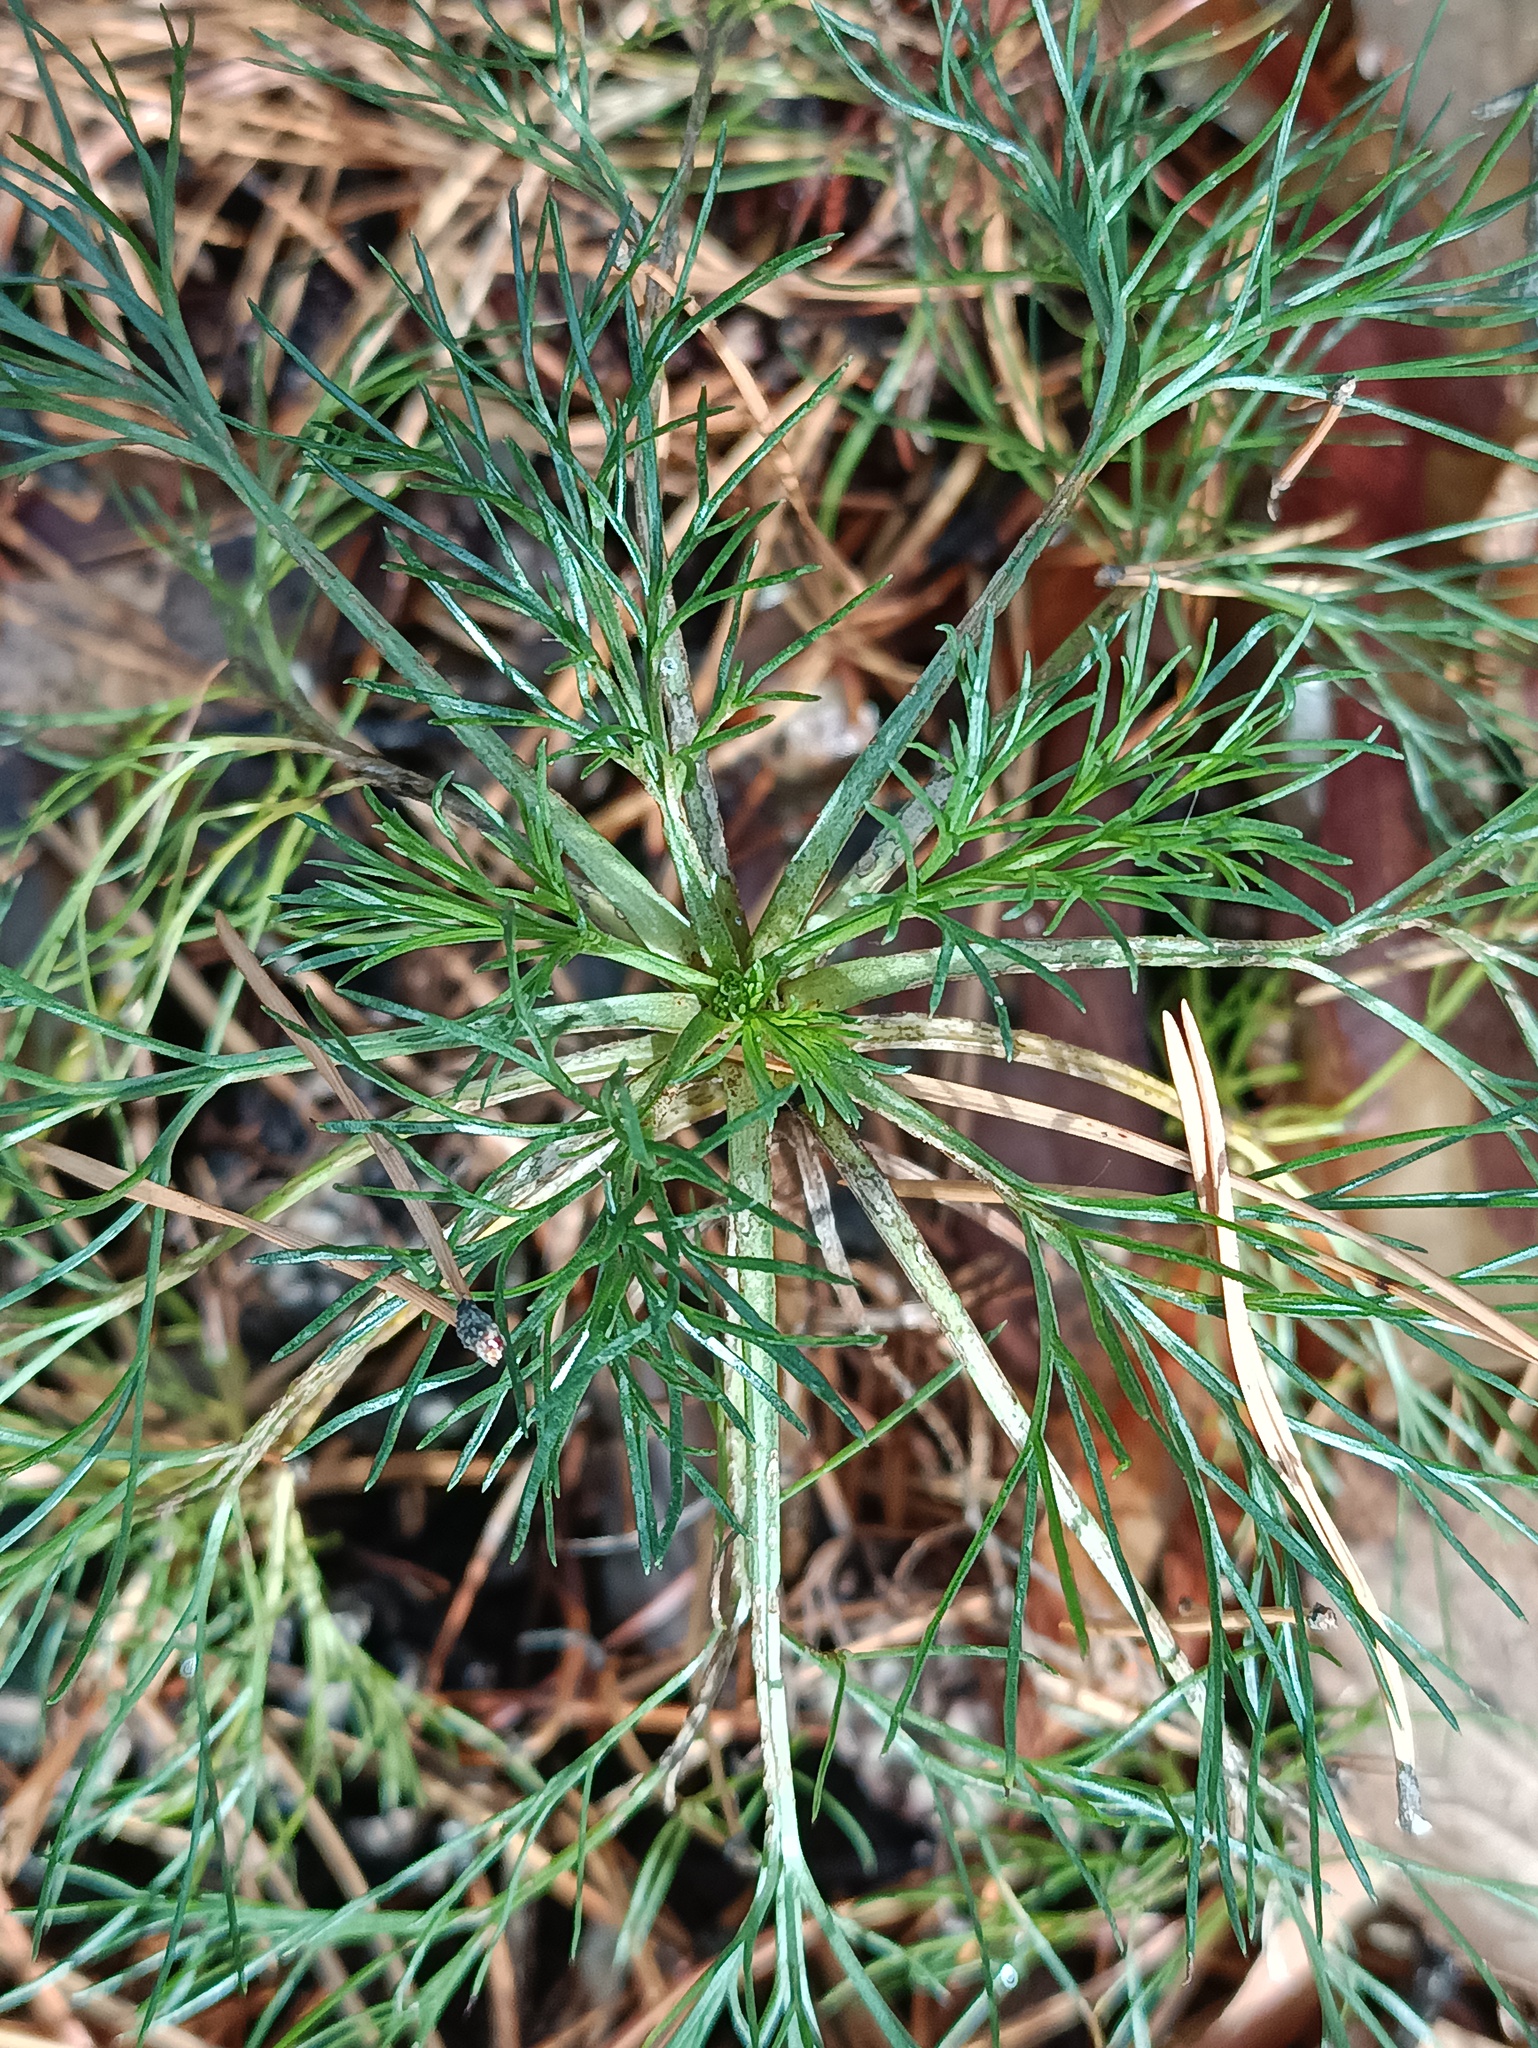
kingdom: Plantae
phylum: Tracheophyta
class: Magnoliopsida
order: Asterales
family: Asteraceae
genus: Artemisia
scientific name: Artemisia campestris
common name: Field wormwood
